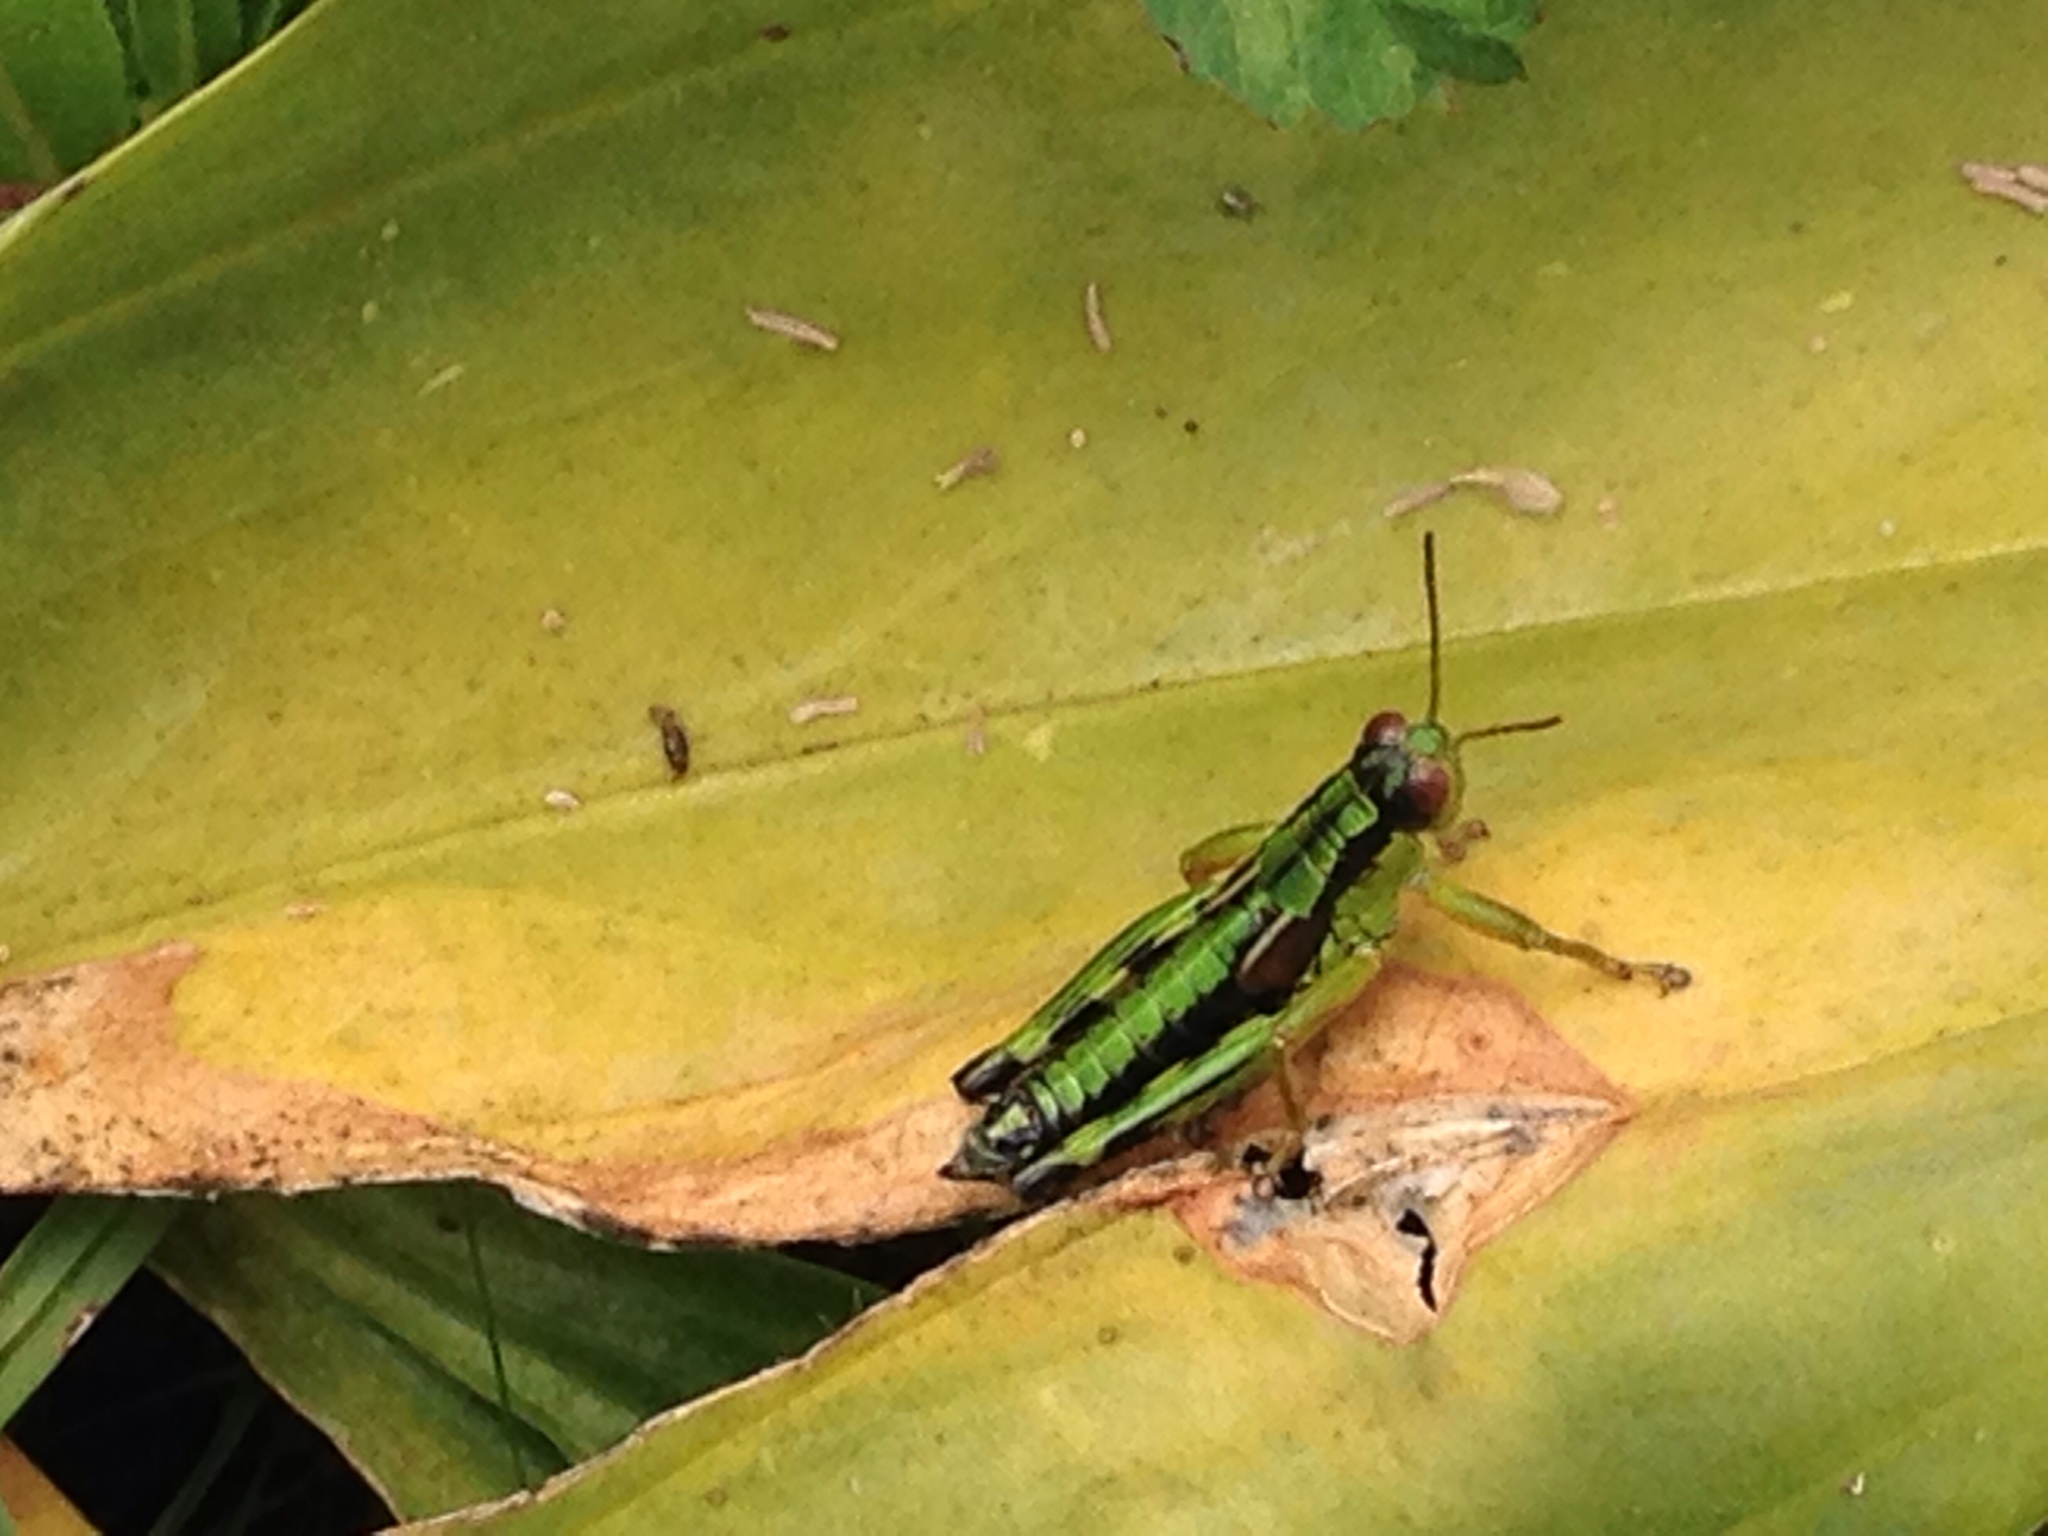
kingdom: Animalia
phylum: Arthropoda
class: Insecta
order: Orthoptera
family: Acrididae
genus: Miramella
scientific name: Miramella alpina
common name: Green mountain grasshopper
